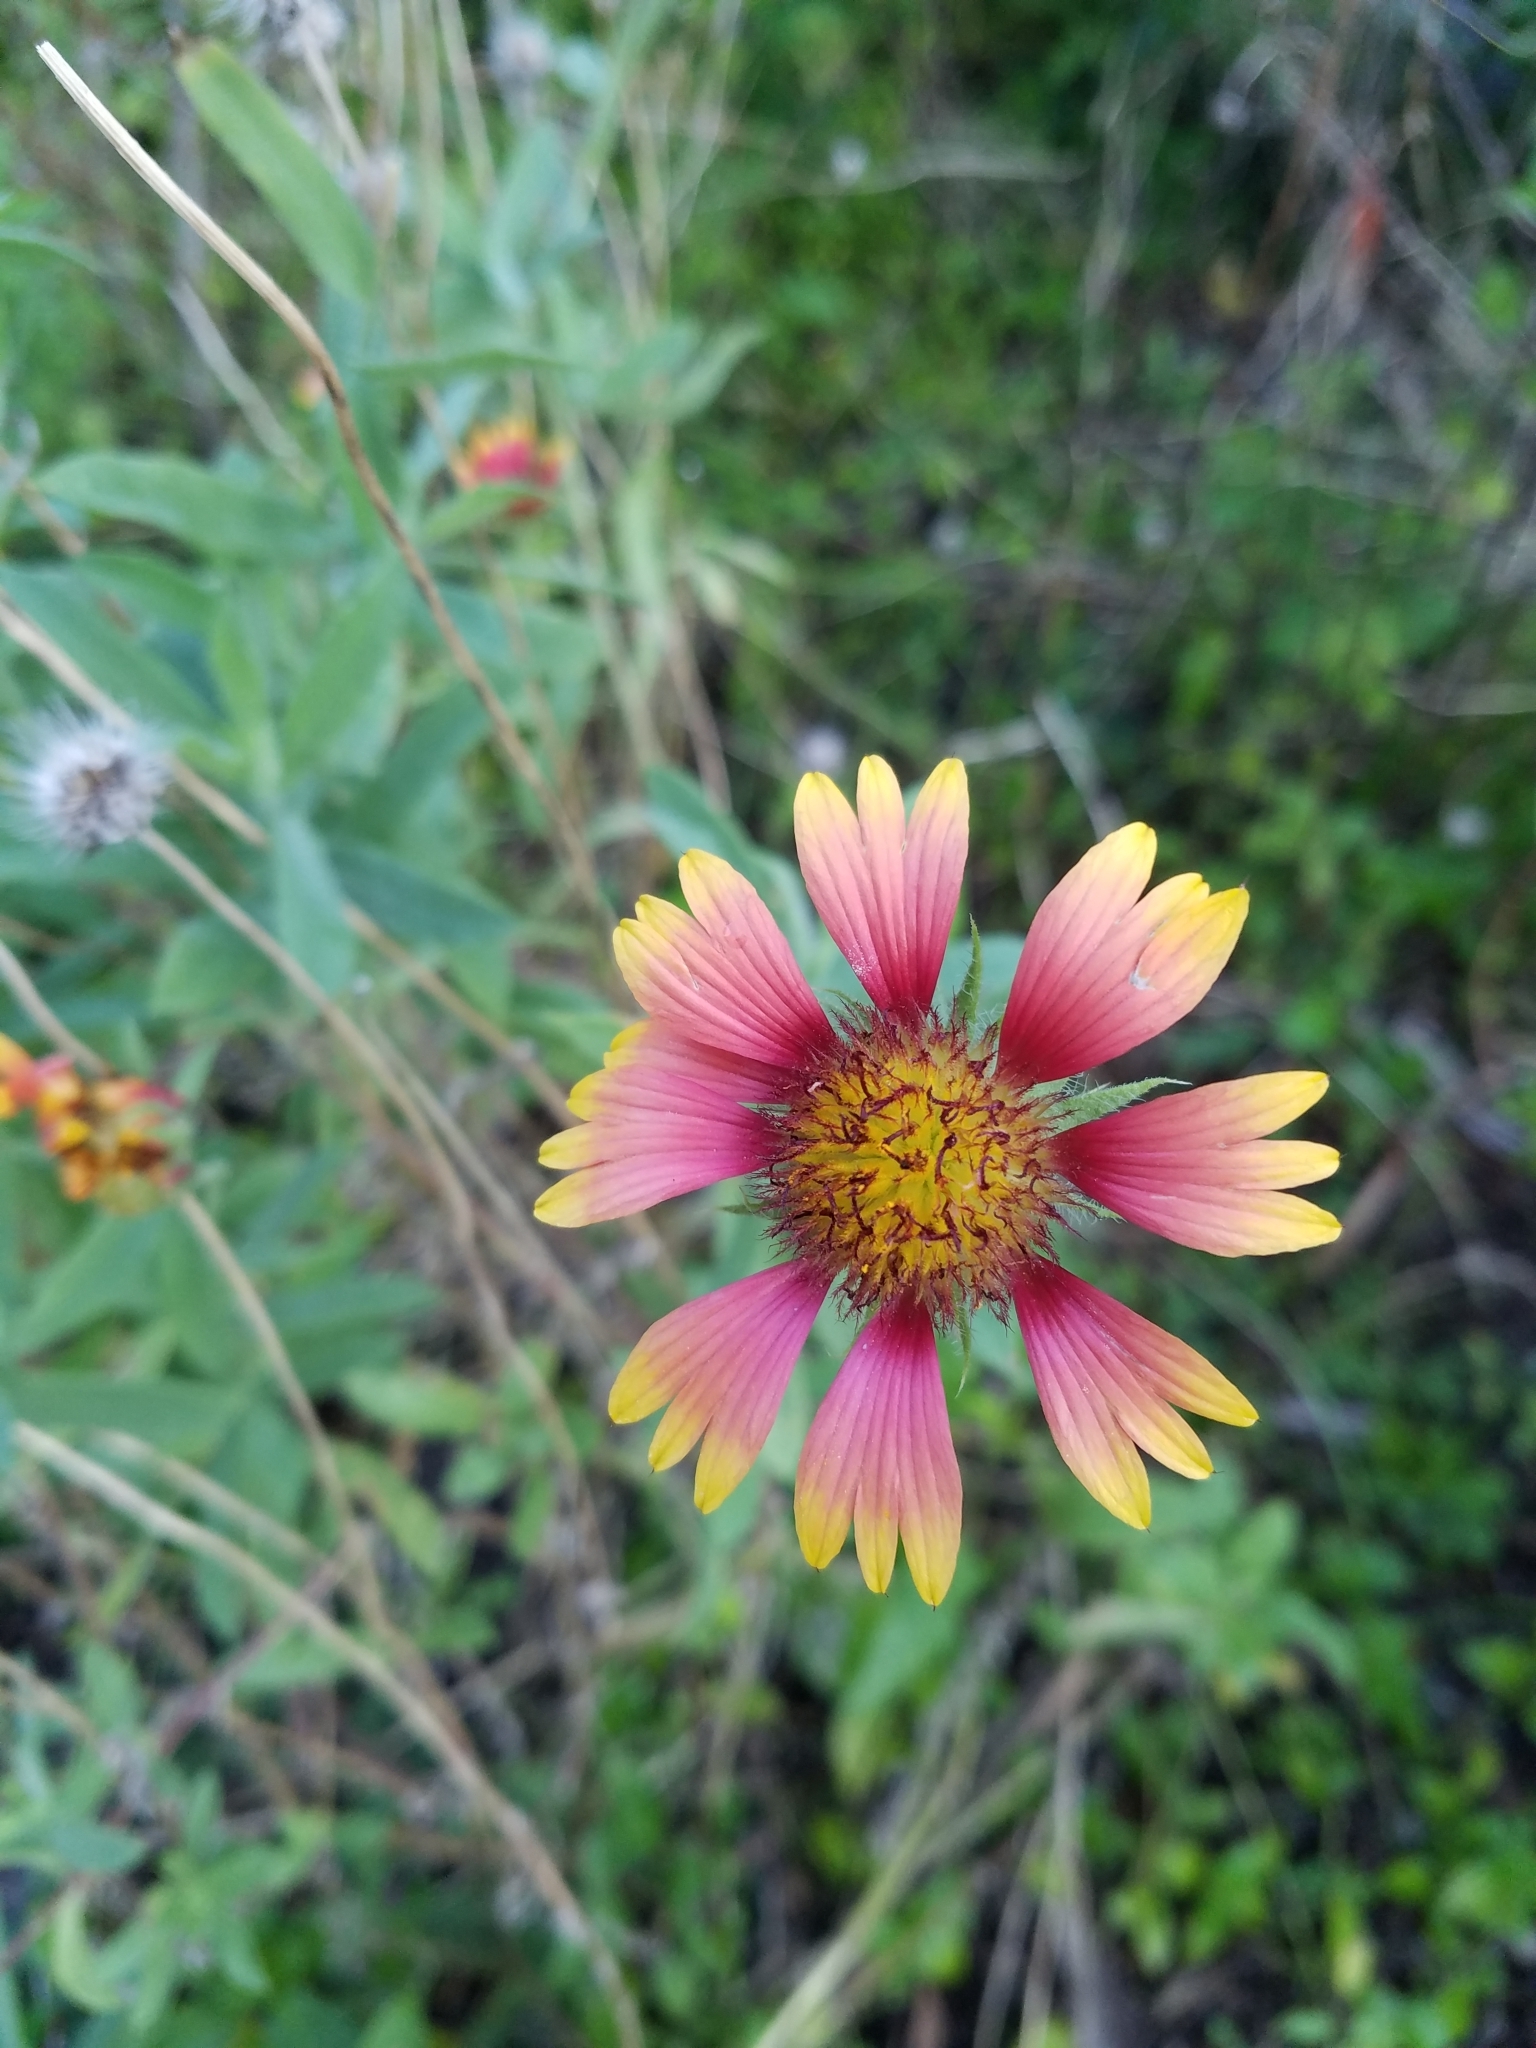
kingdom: Plantae
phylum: Tracheophyta
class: Magnoliopsida
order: Asterales
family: Asteraceae
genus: Gaillardia
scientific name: Gaillardia pulchella
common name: Firewheel
